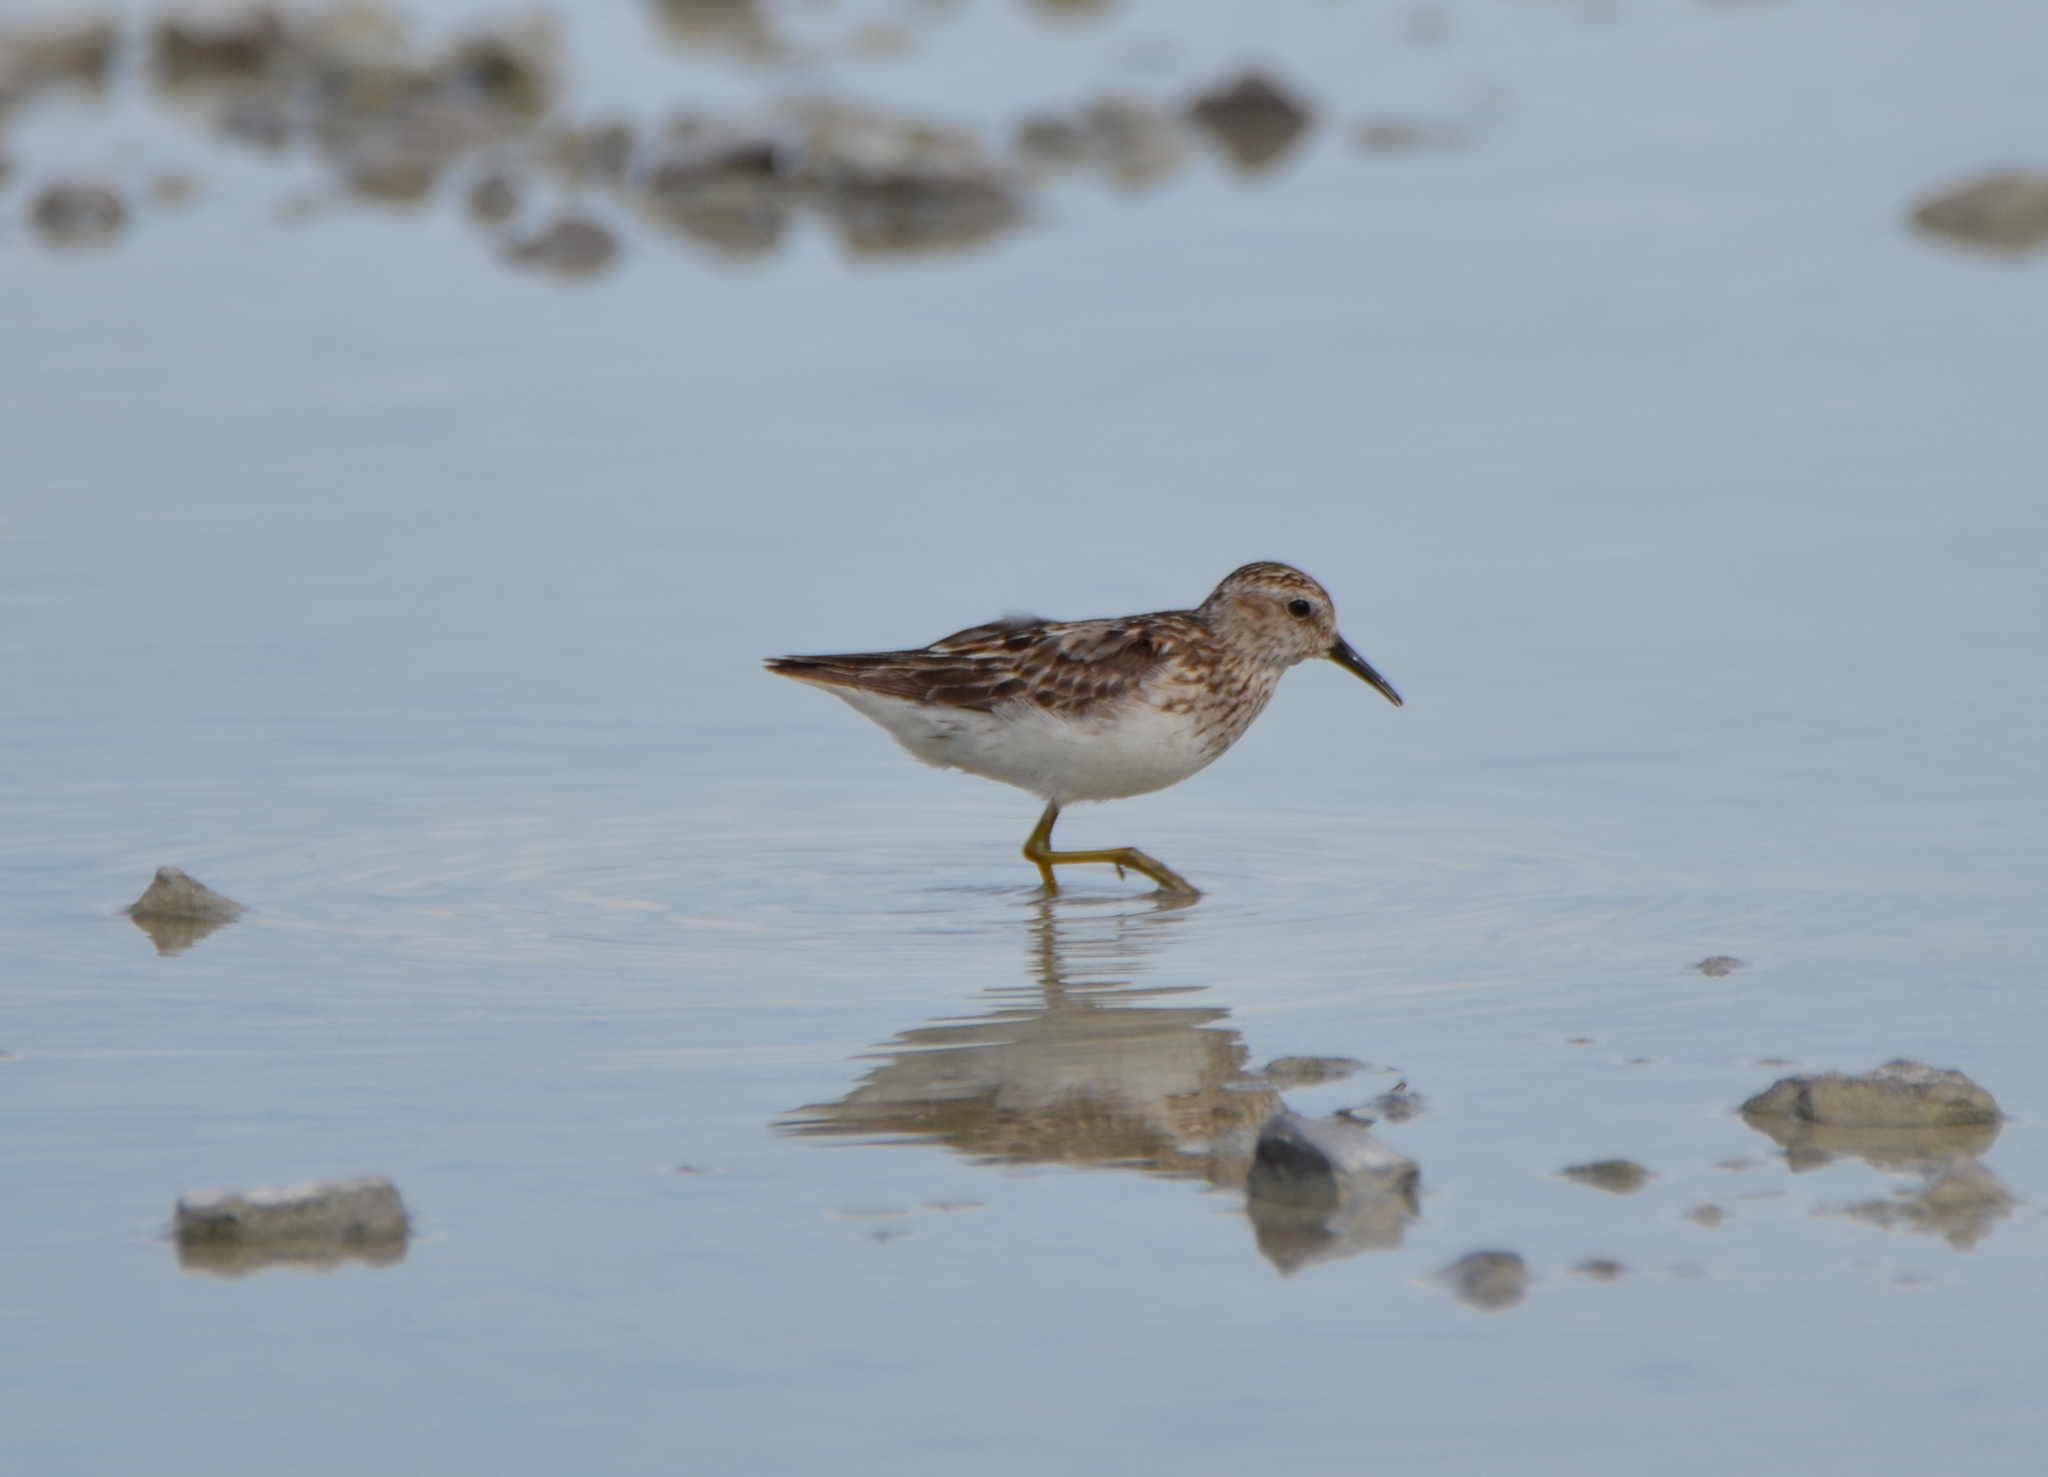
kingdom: Animalia
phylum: Chordata
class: Aves
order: Charadriiformes
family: Scolopacidae
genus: Calidris
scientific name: Calidris minutilla
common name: Least sandpiper
